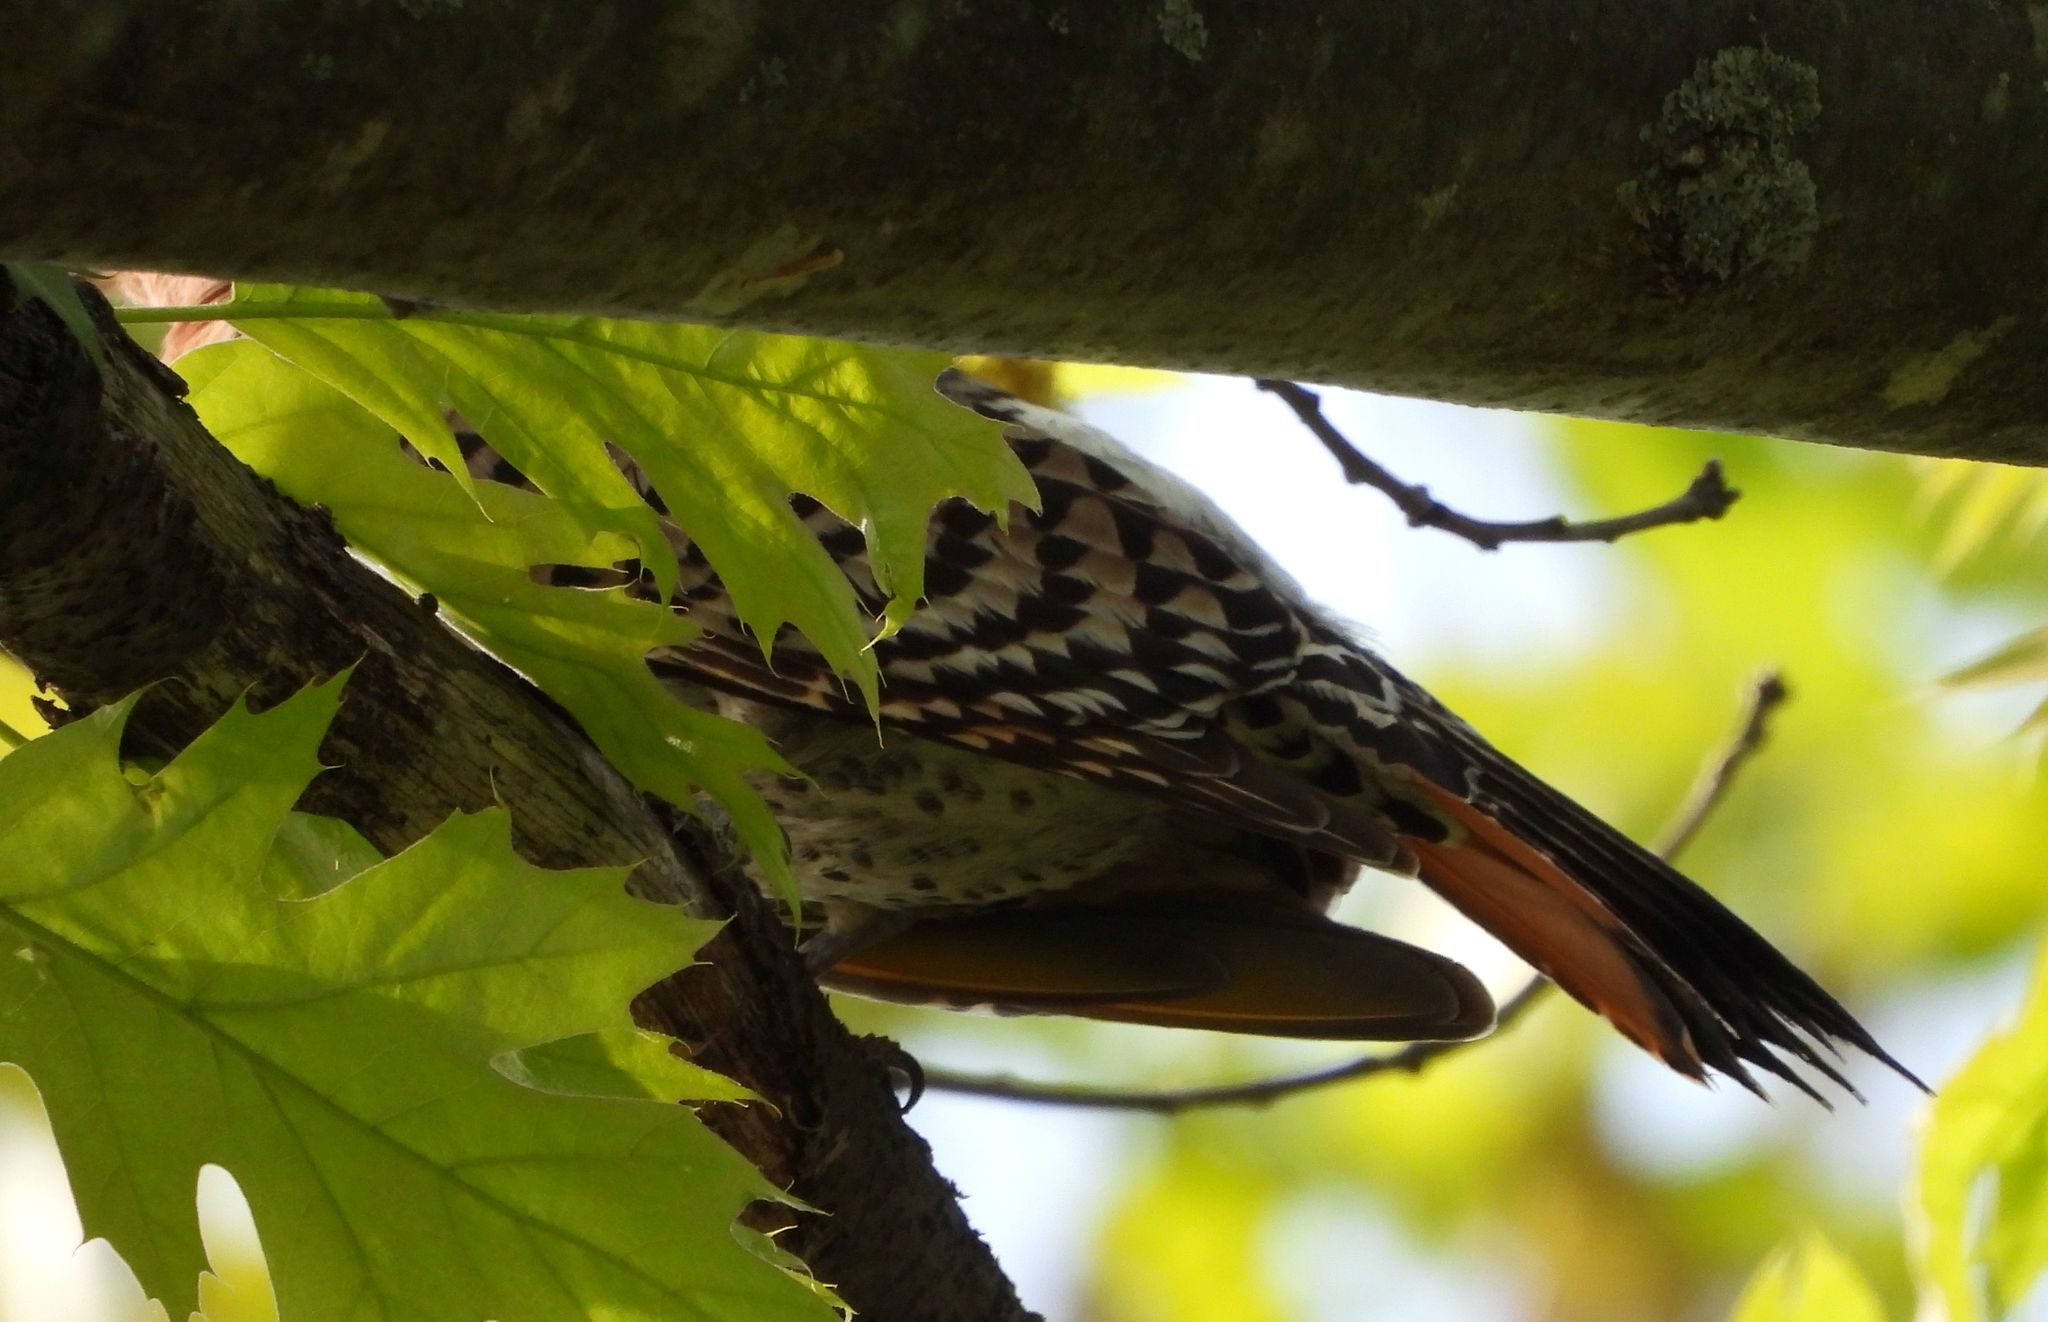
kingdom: Animalia
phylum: Chordata
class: Aves
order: Piciformes
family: Picidae
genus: Colaptes
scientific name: Colaptes auratus
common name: Northern flicker
